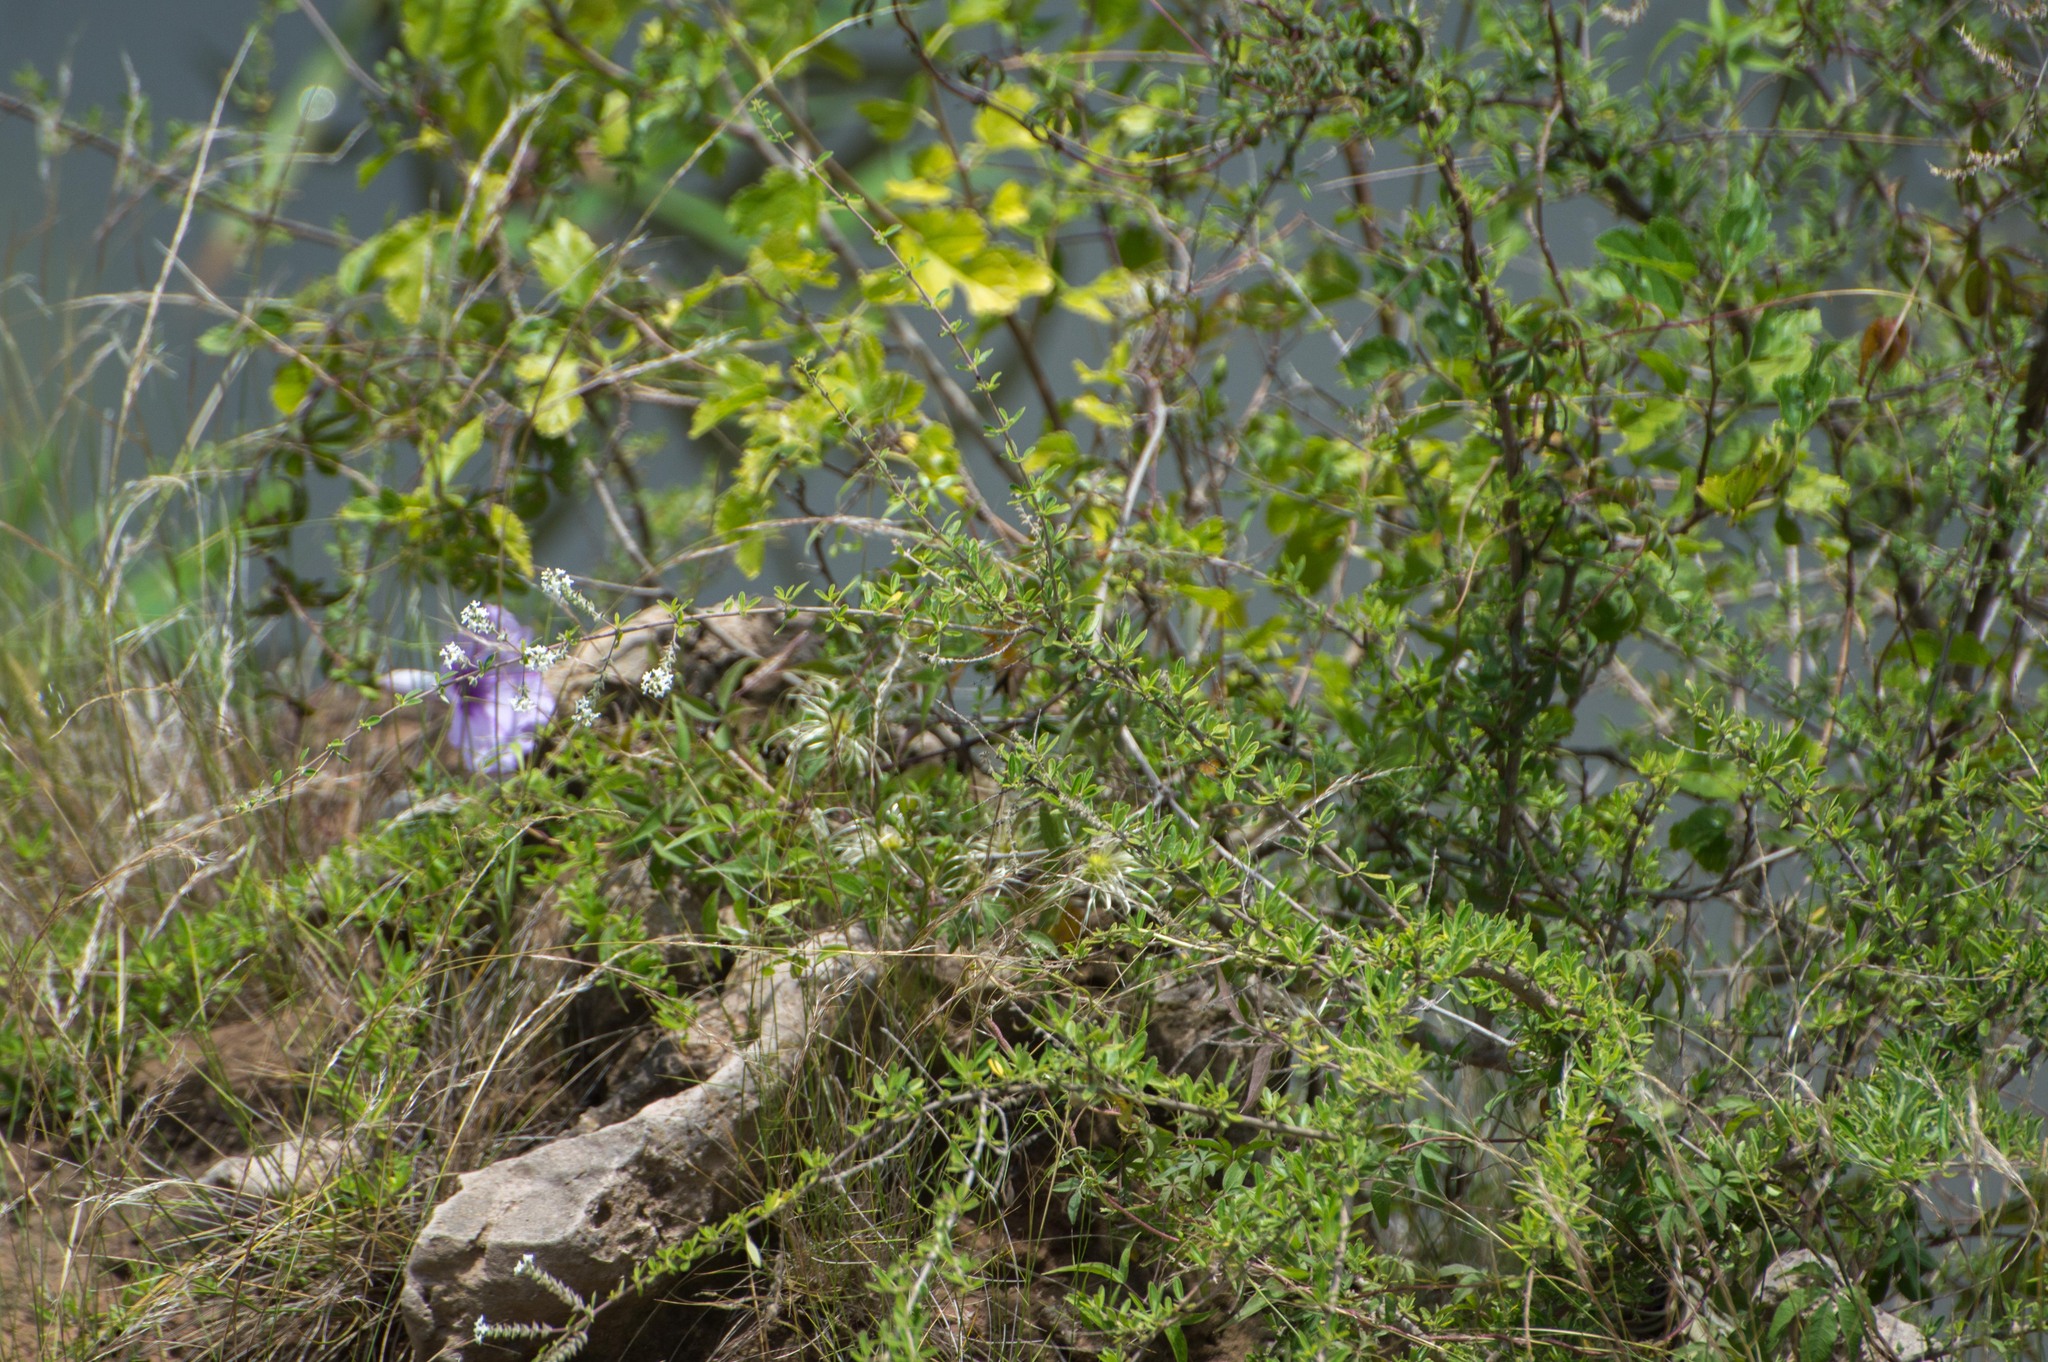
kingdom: Plantae
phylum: Tracheophyta
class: Magnoliopsida
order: Lamiales
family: Verbenaceae
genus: Aloysia
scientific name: Aloysia gratissima
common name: Common bee-brush
